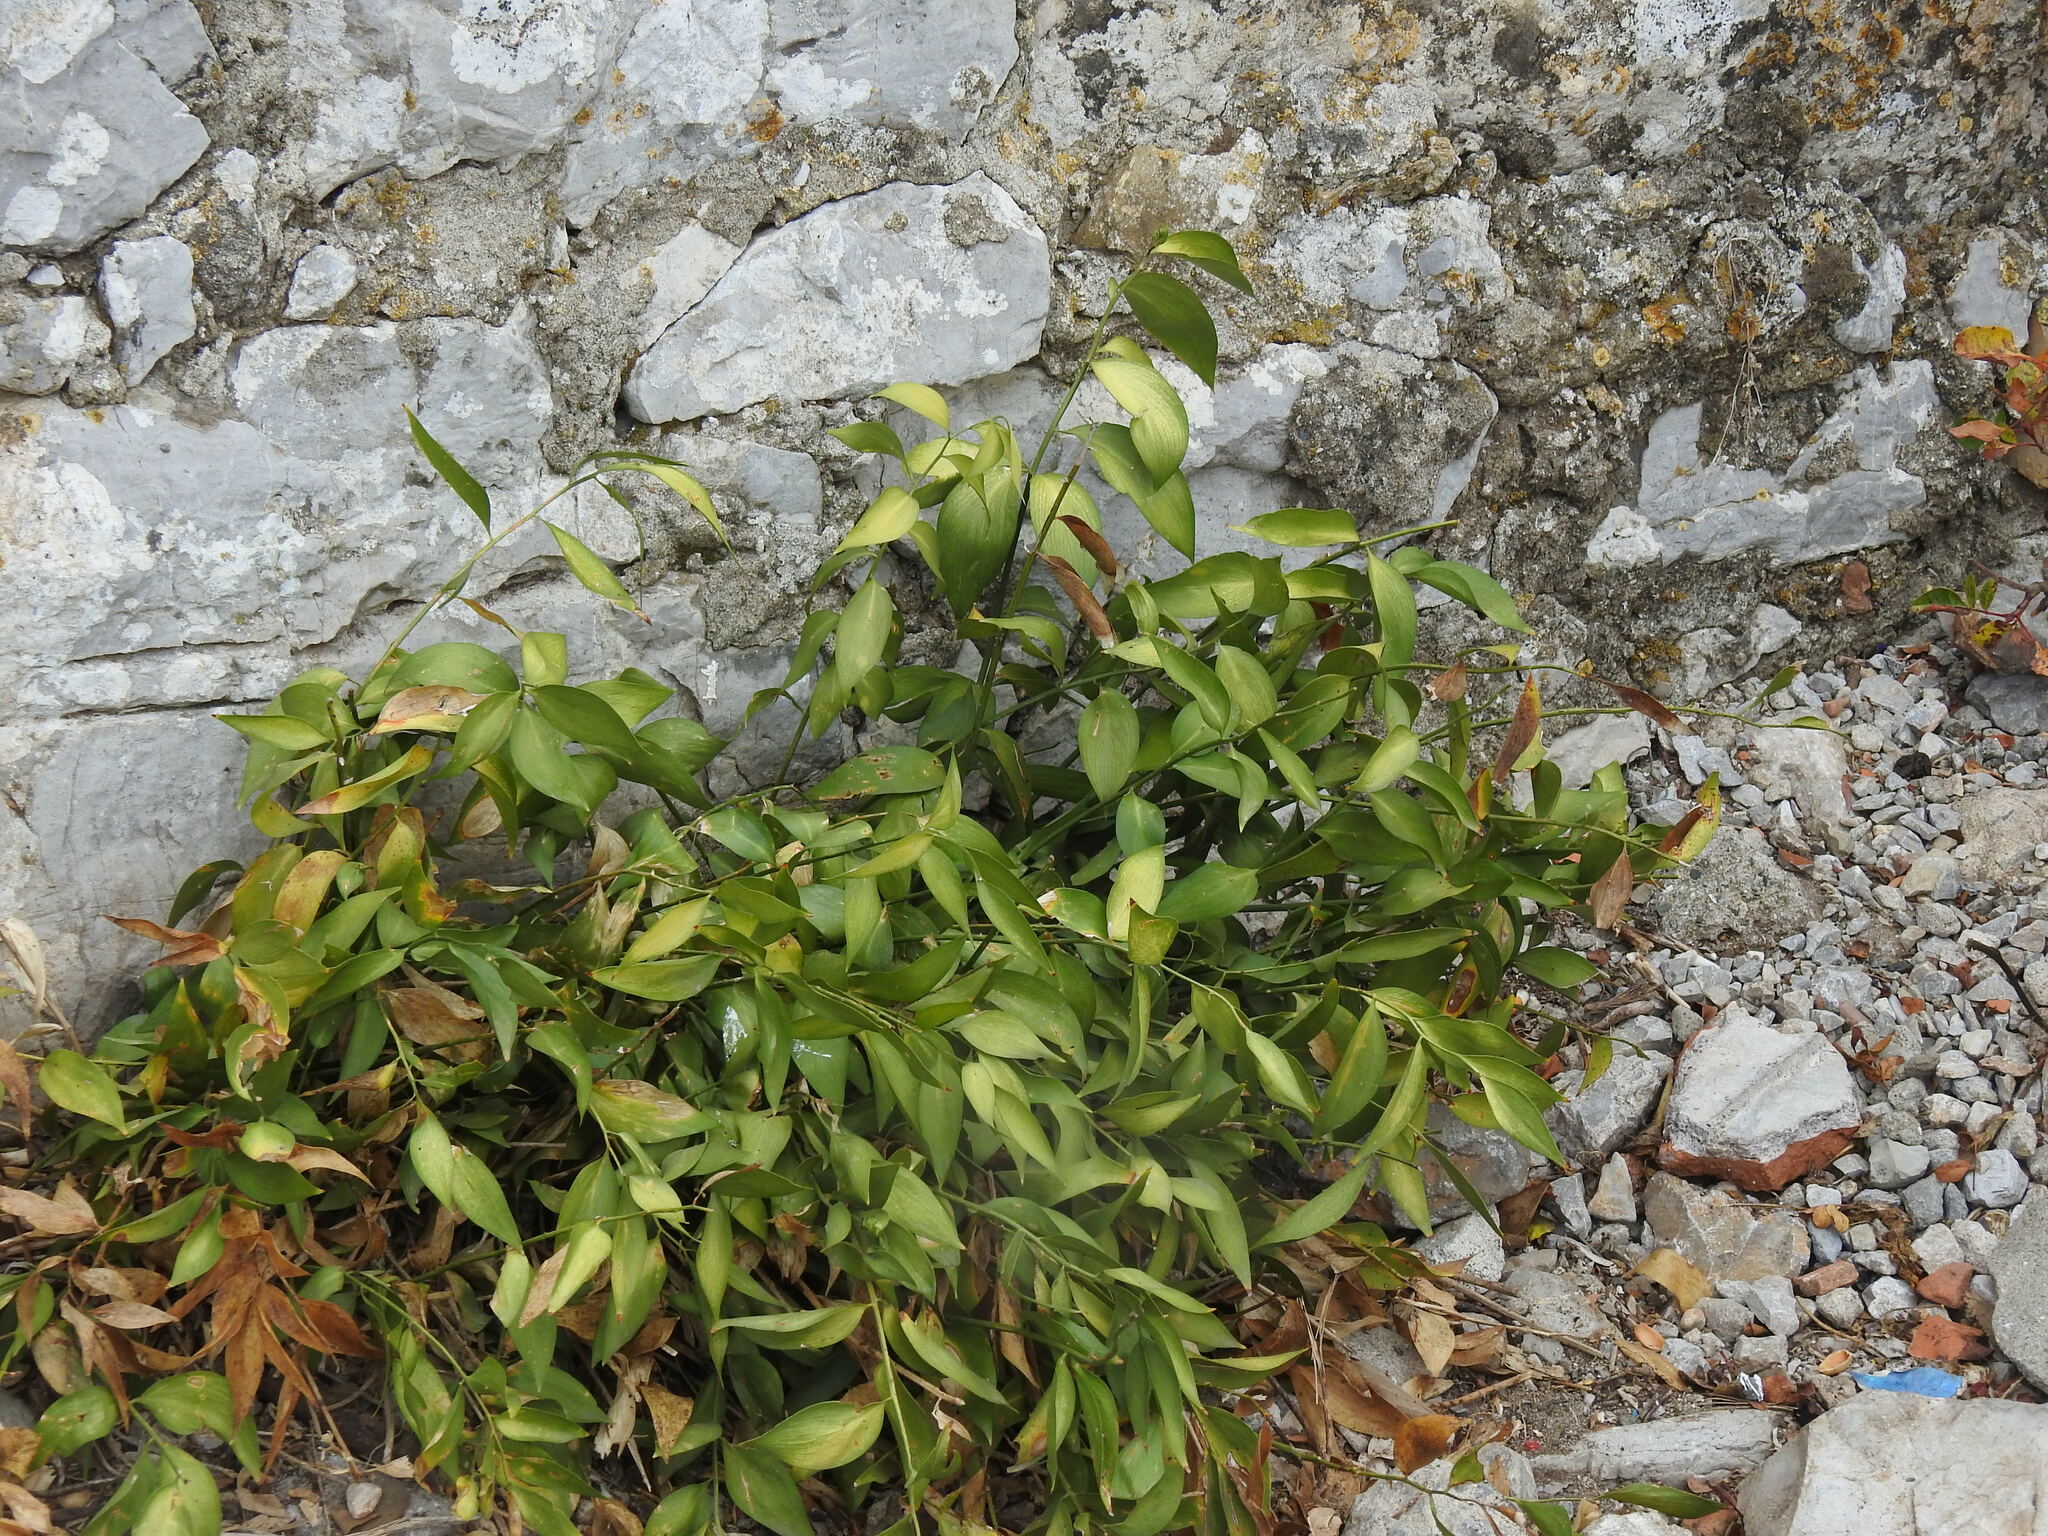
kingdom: Plantae
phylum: Tracheophyta
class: Liliopsida
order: Asparagales
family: Asparagaceae
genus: Ruscus
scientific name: Ruscus hypophyllum
